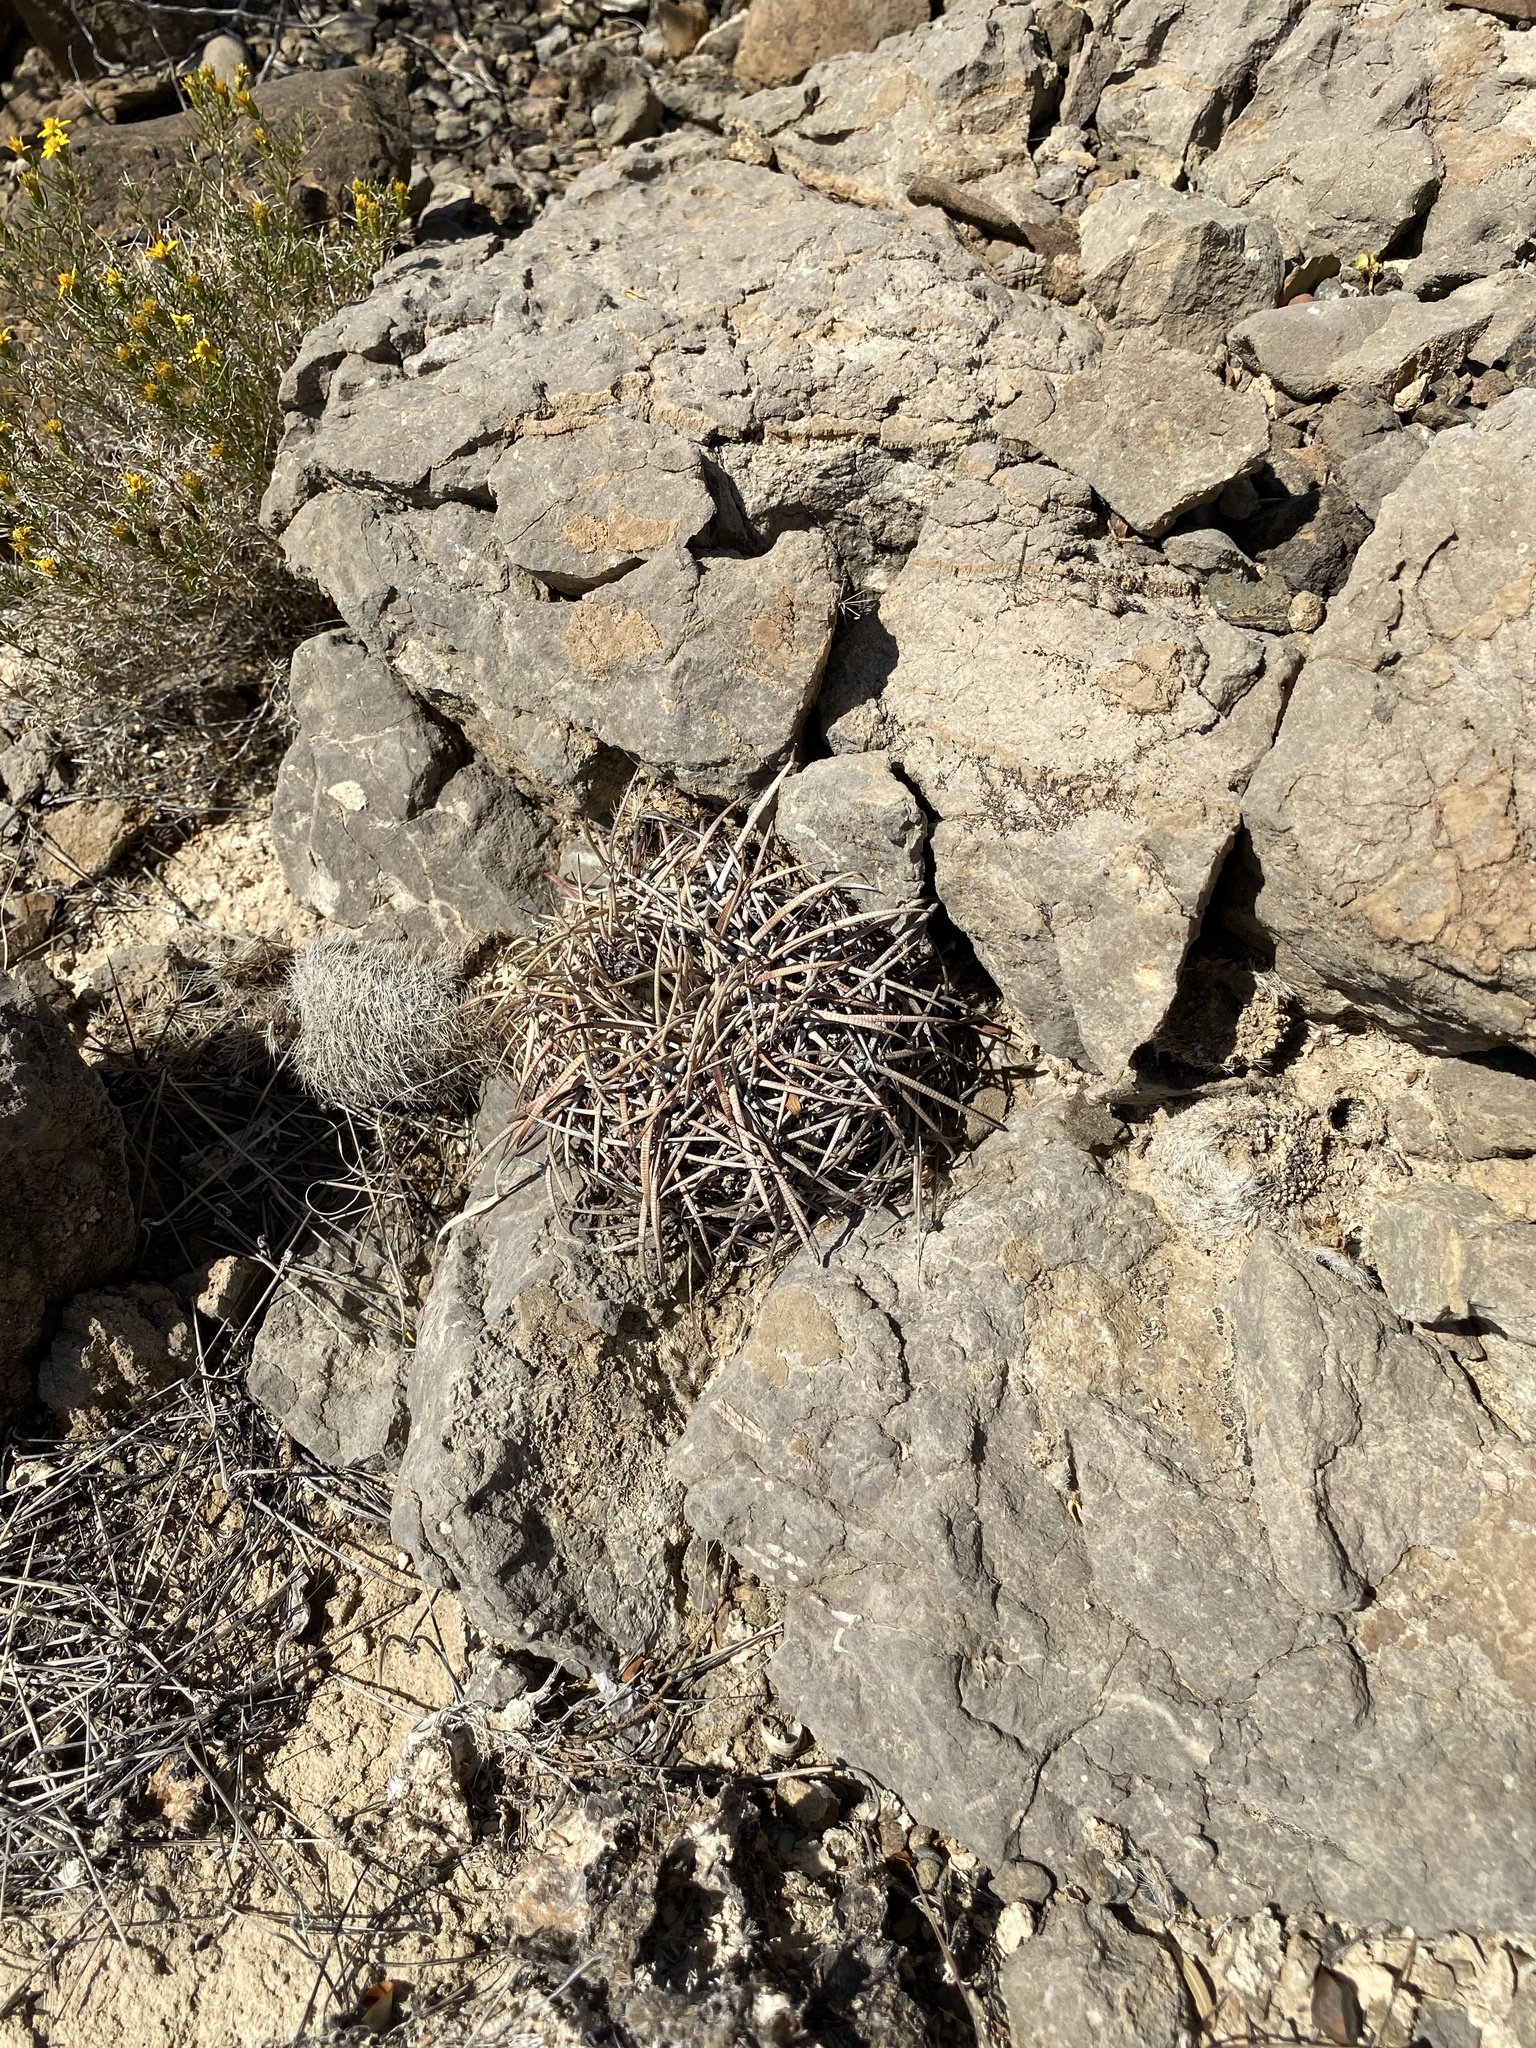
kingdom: Plantae
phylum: Tracheophyta
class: Magnoliopsida
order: Caryophyllales
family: Cactaceae
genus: Echinocactus
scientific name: Echinocactus horizonthalonius
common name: Devilshead
